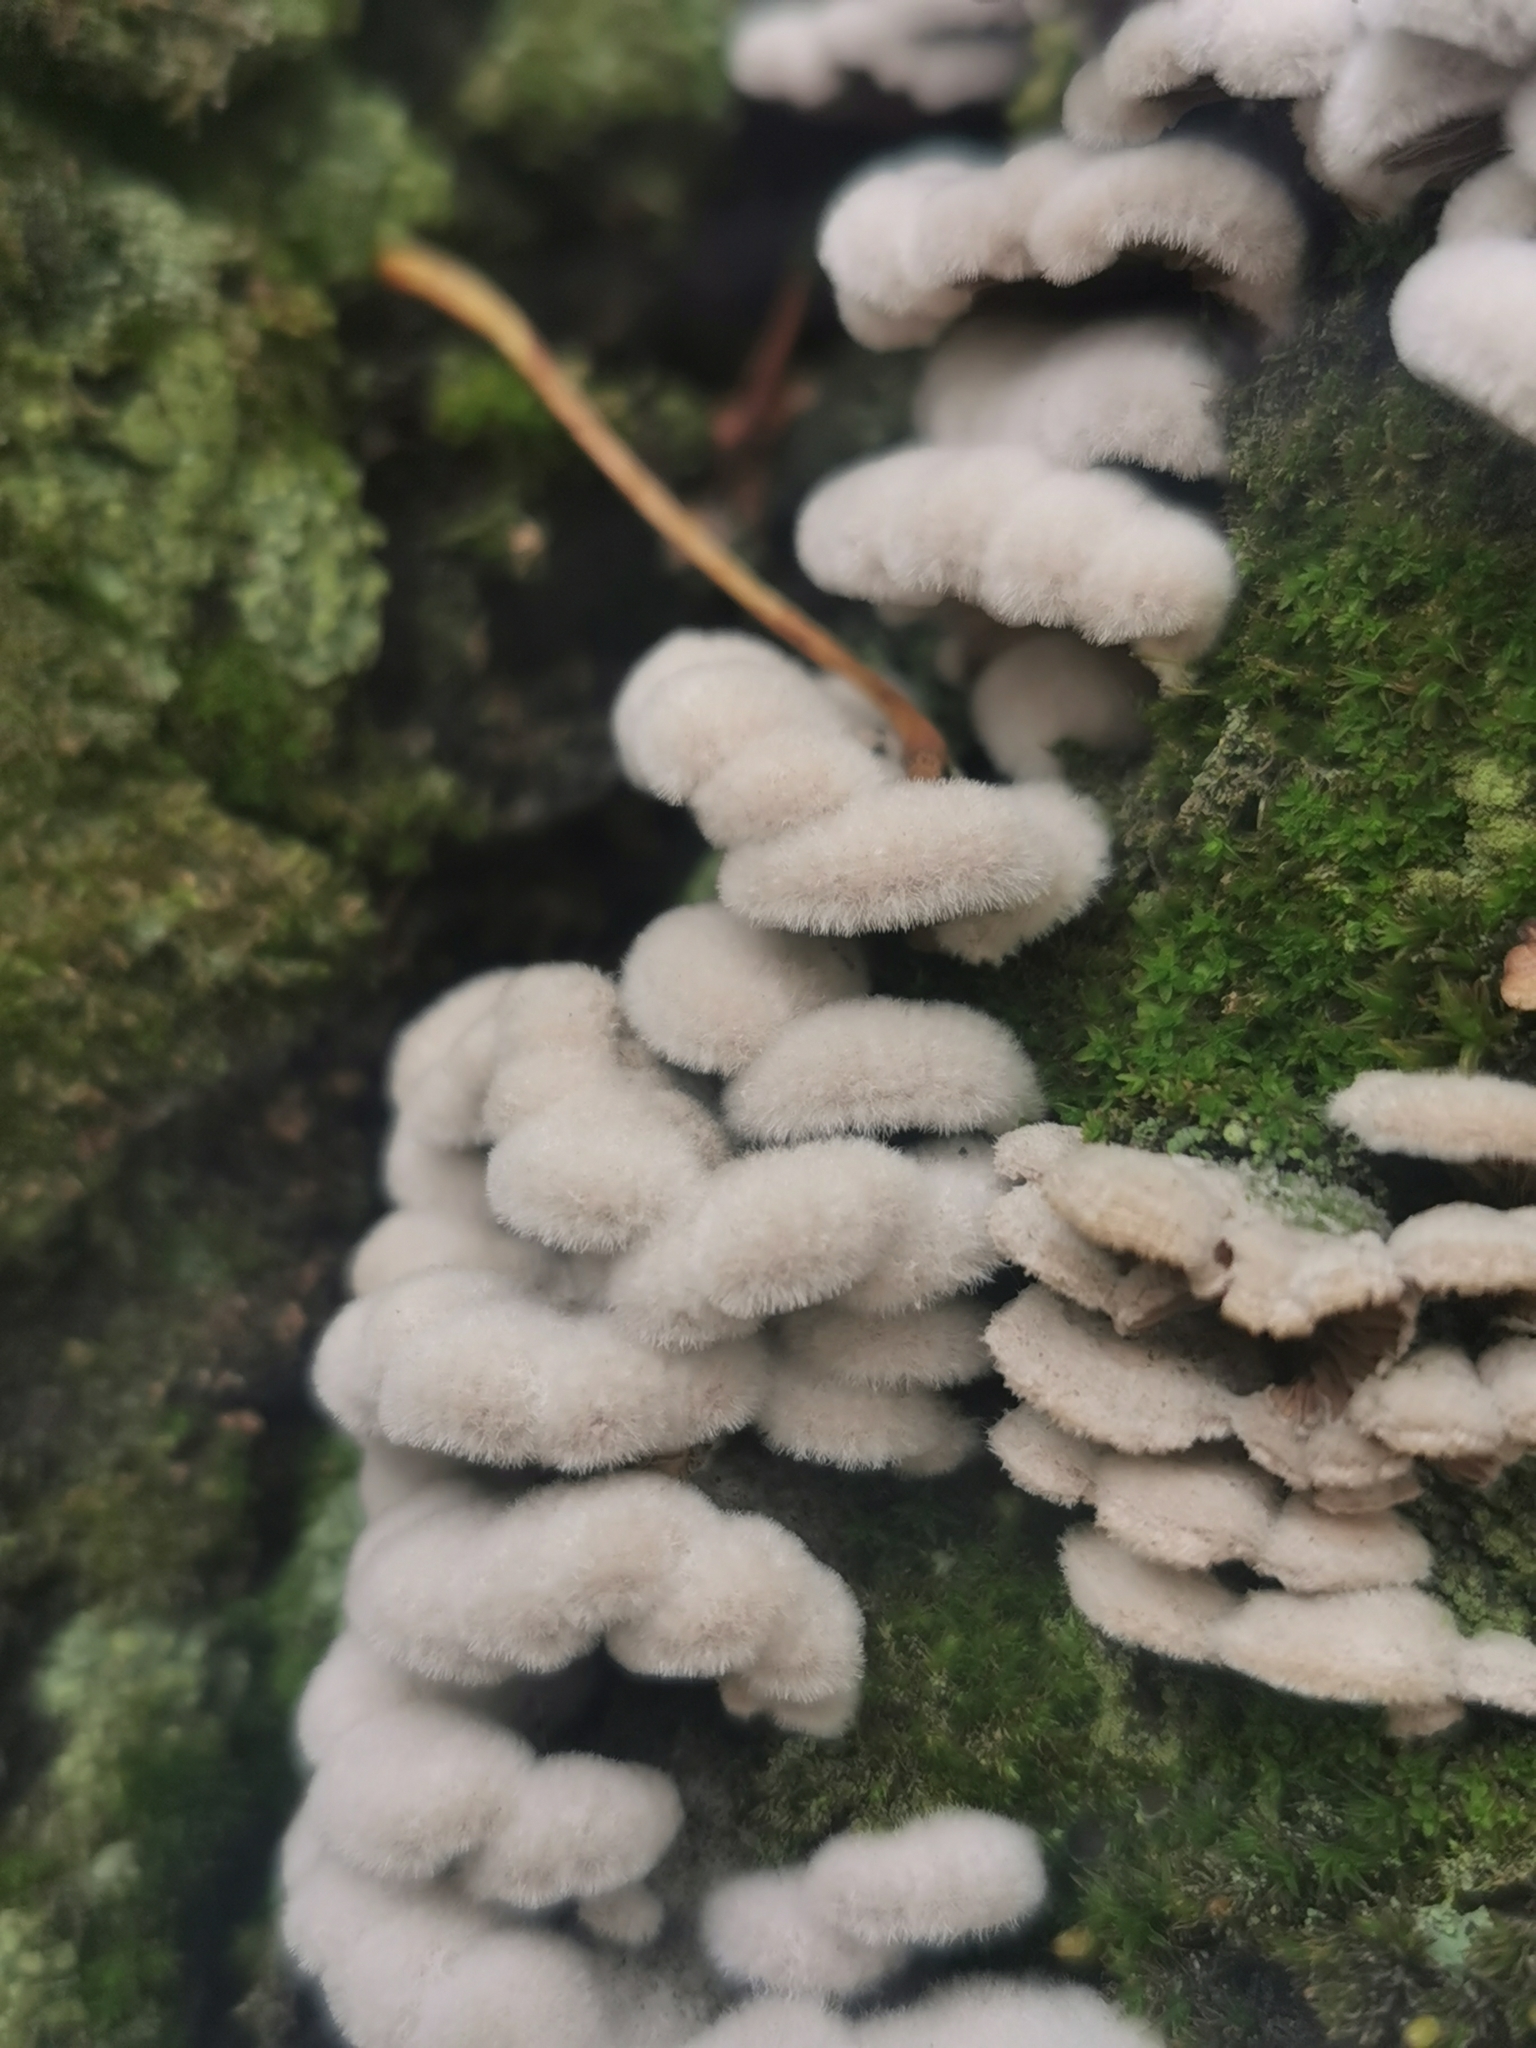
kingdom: Fungi
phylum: Basidiomycota
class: Agaricomycetes
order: Agaricales
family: Schizophyllaceae
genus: Schizophyllum
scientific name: Schizophyllum commune
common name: Common porecrust
